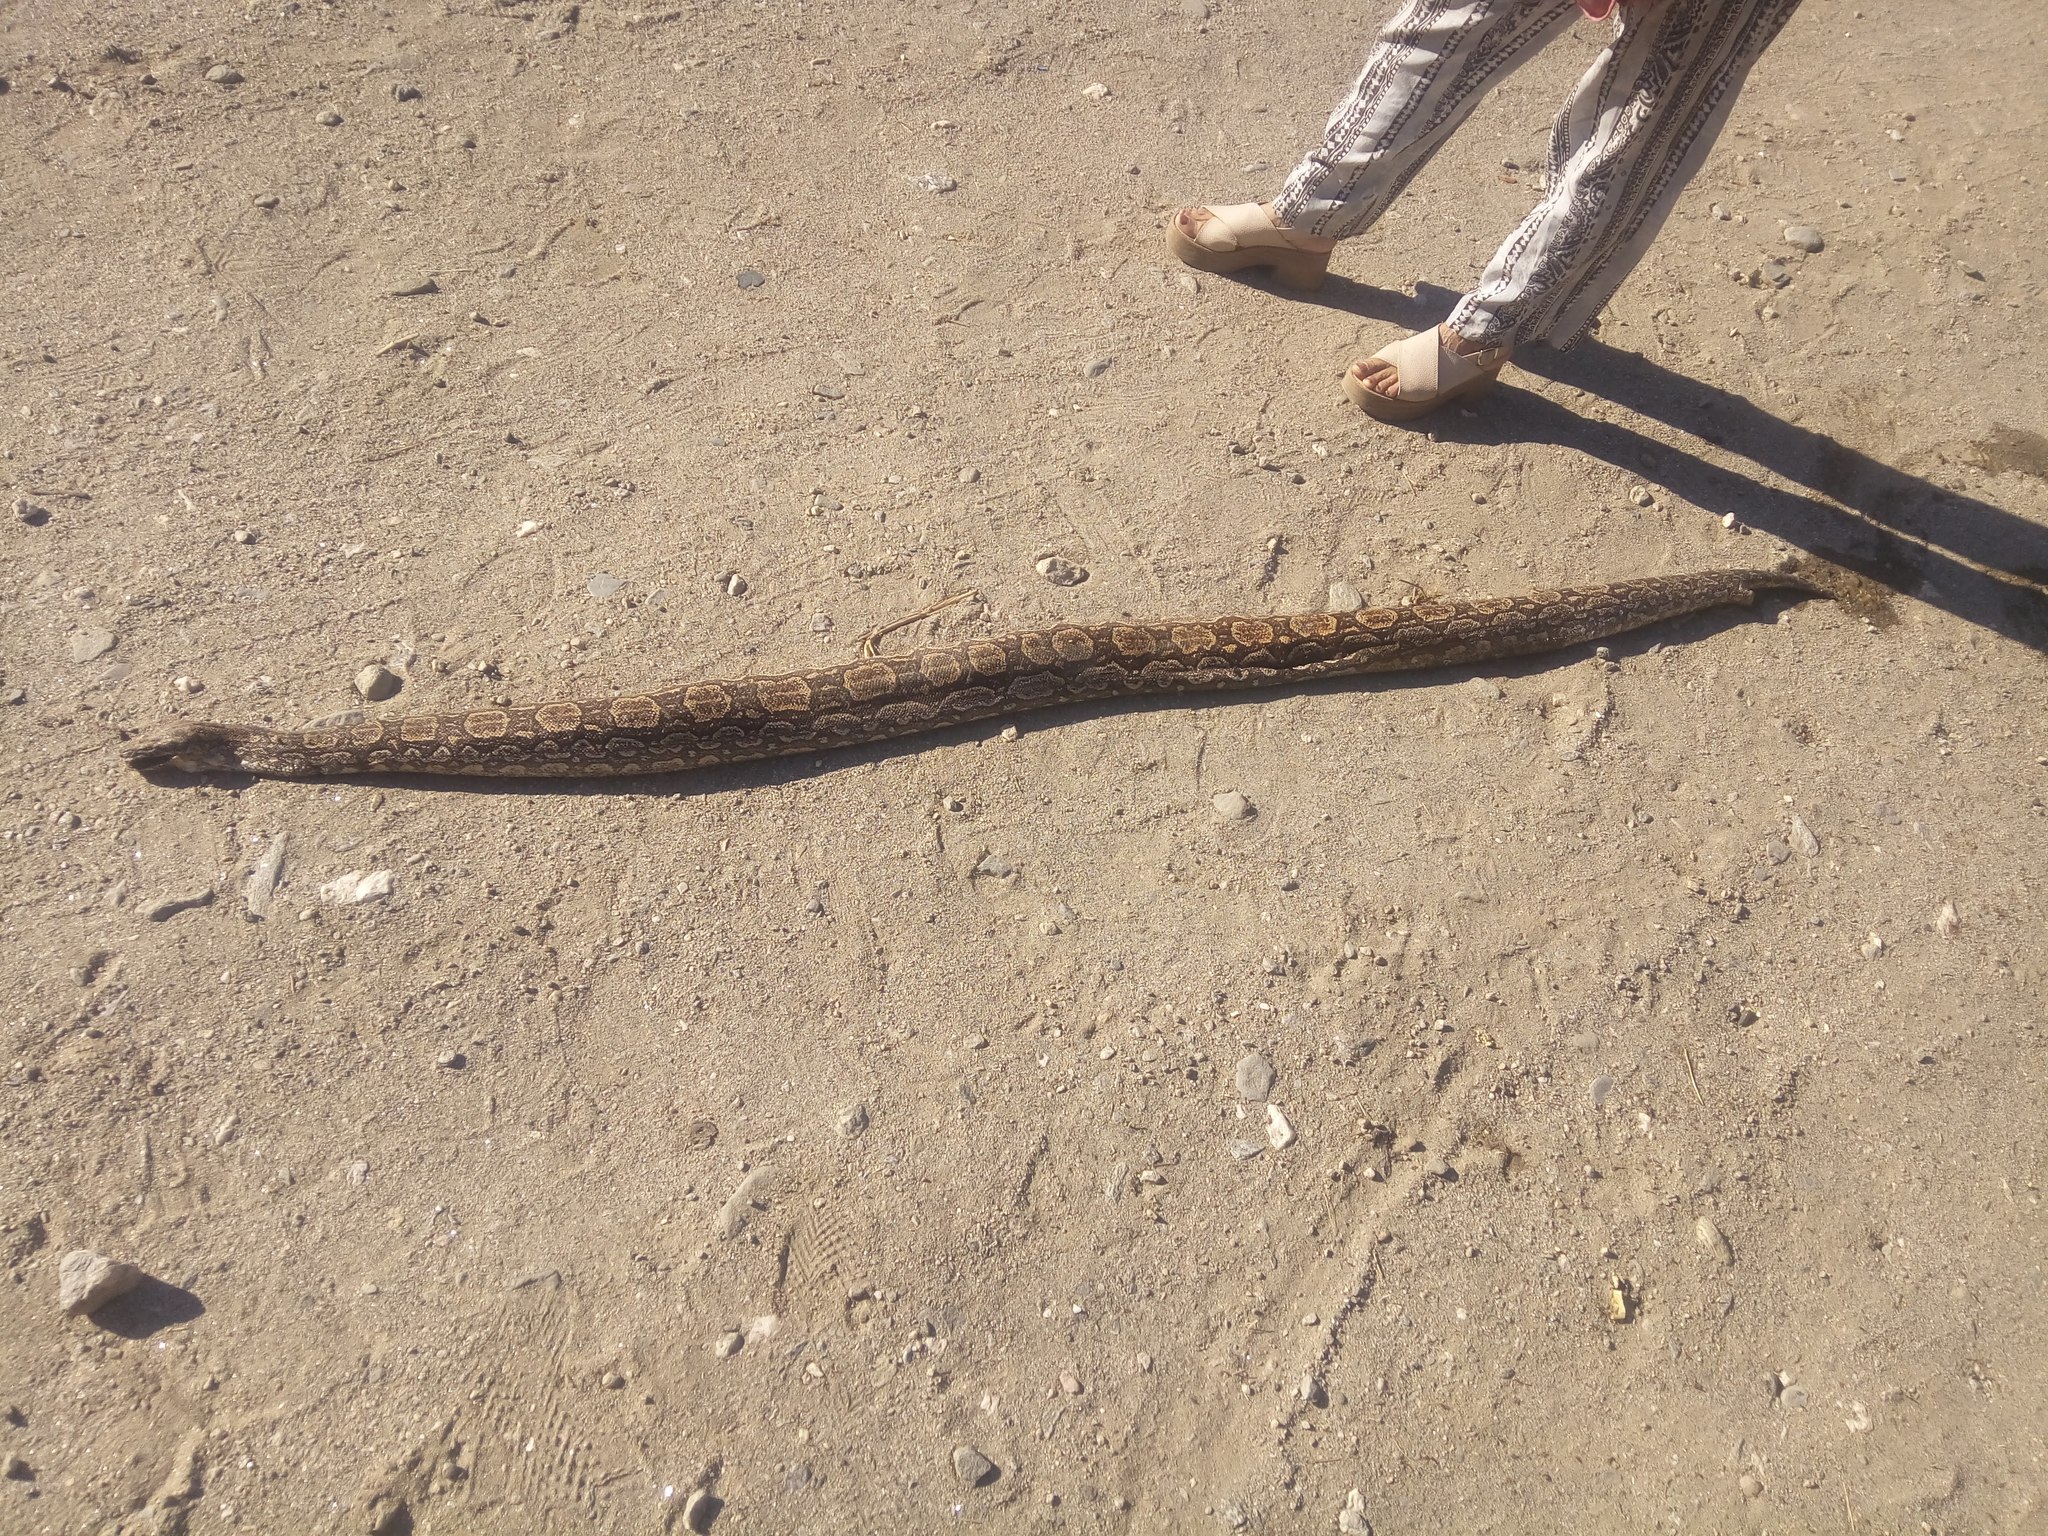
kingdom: Animalia
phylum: Chordata
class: Squamata
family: Boidae
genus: Boa
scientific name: Boa constrictor
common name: Boa constrictor
